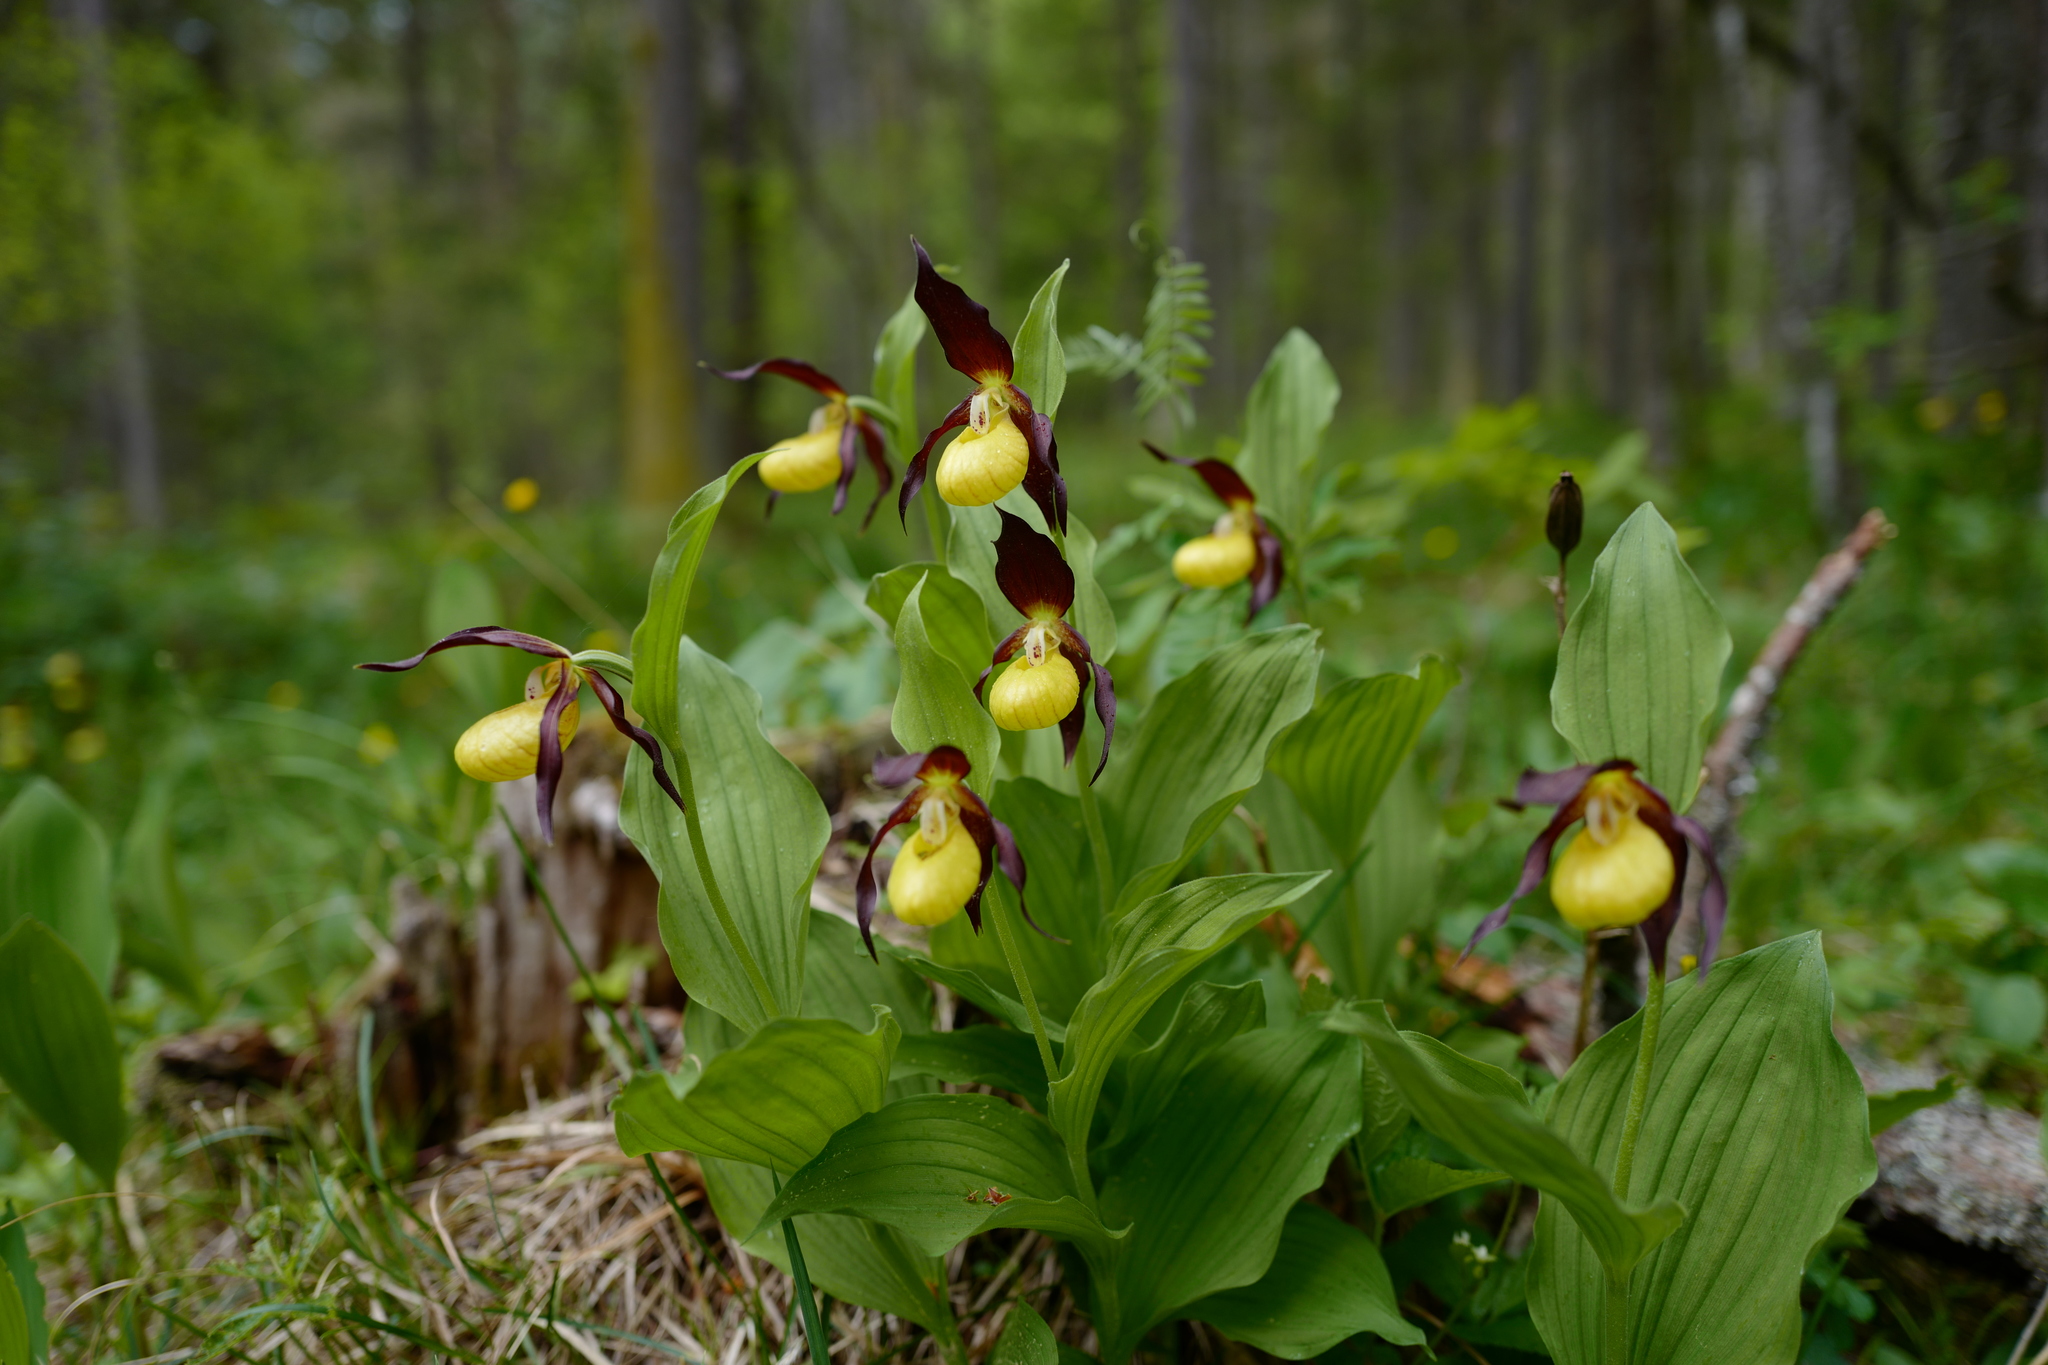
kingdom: Plantae
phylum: Tracheophyta
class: Liliopsida
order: Asparagales
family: Orchidaceae
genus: Cypripedium
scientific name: Cypripedium calceolus
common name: Lady's-slipper
